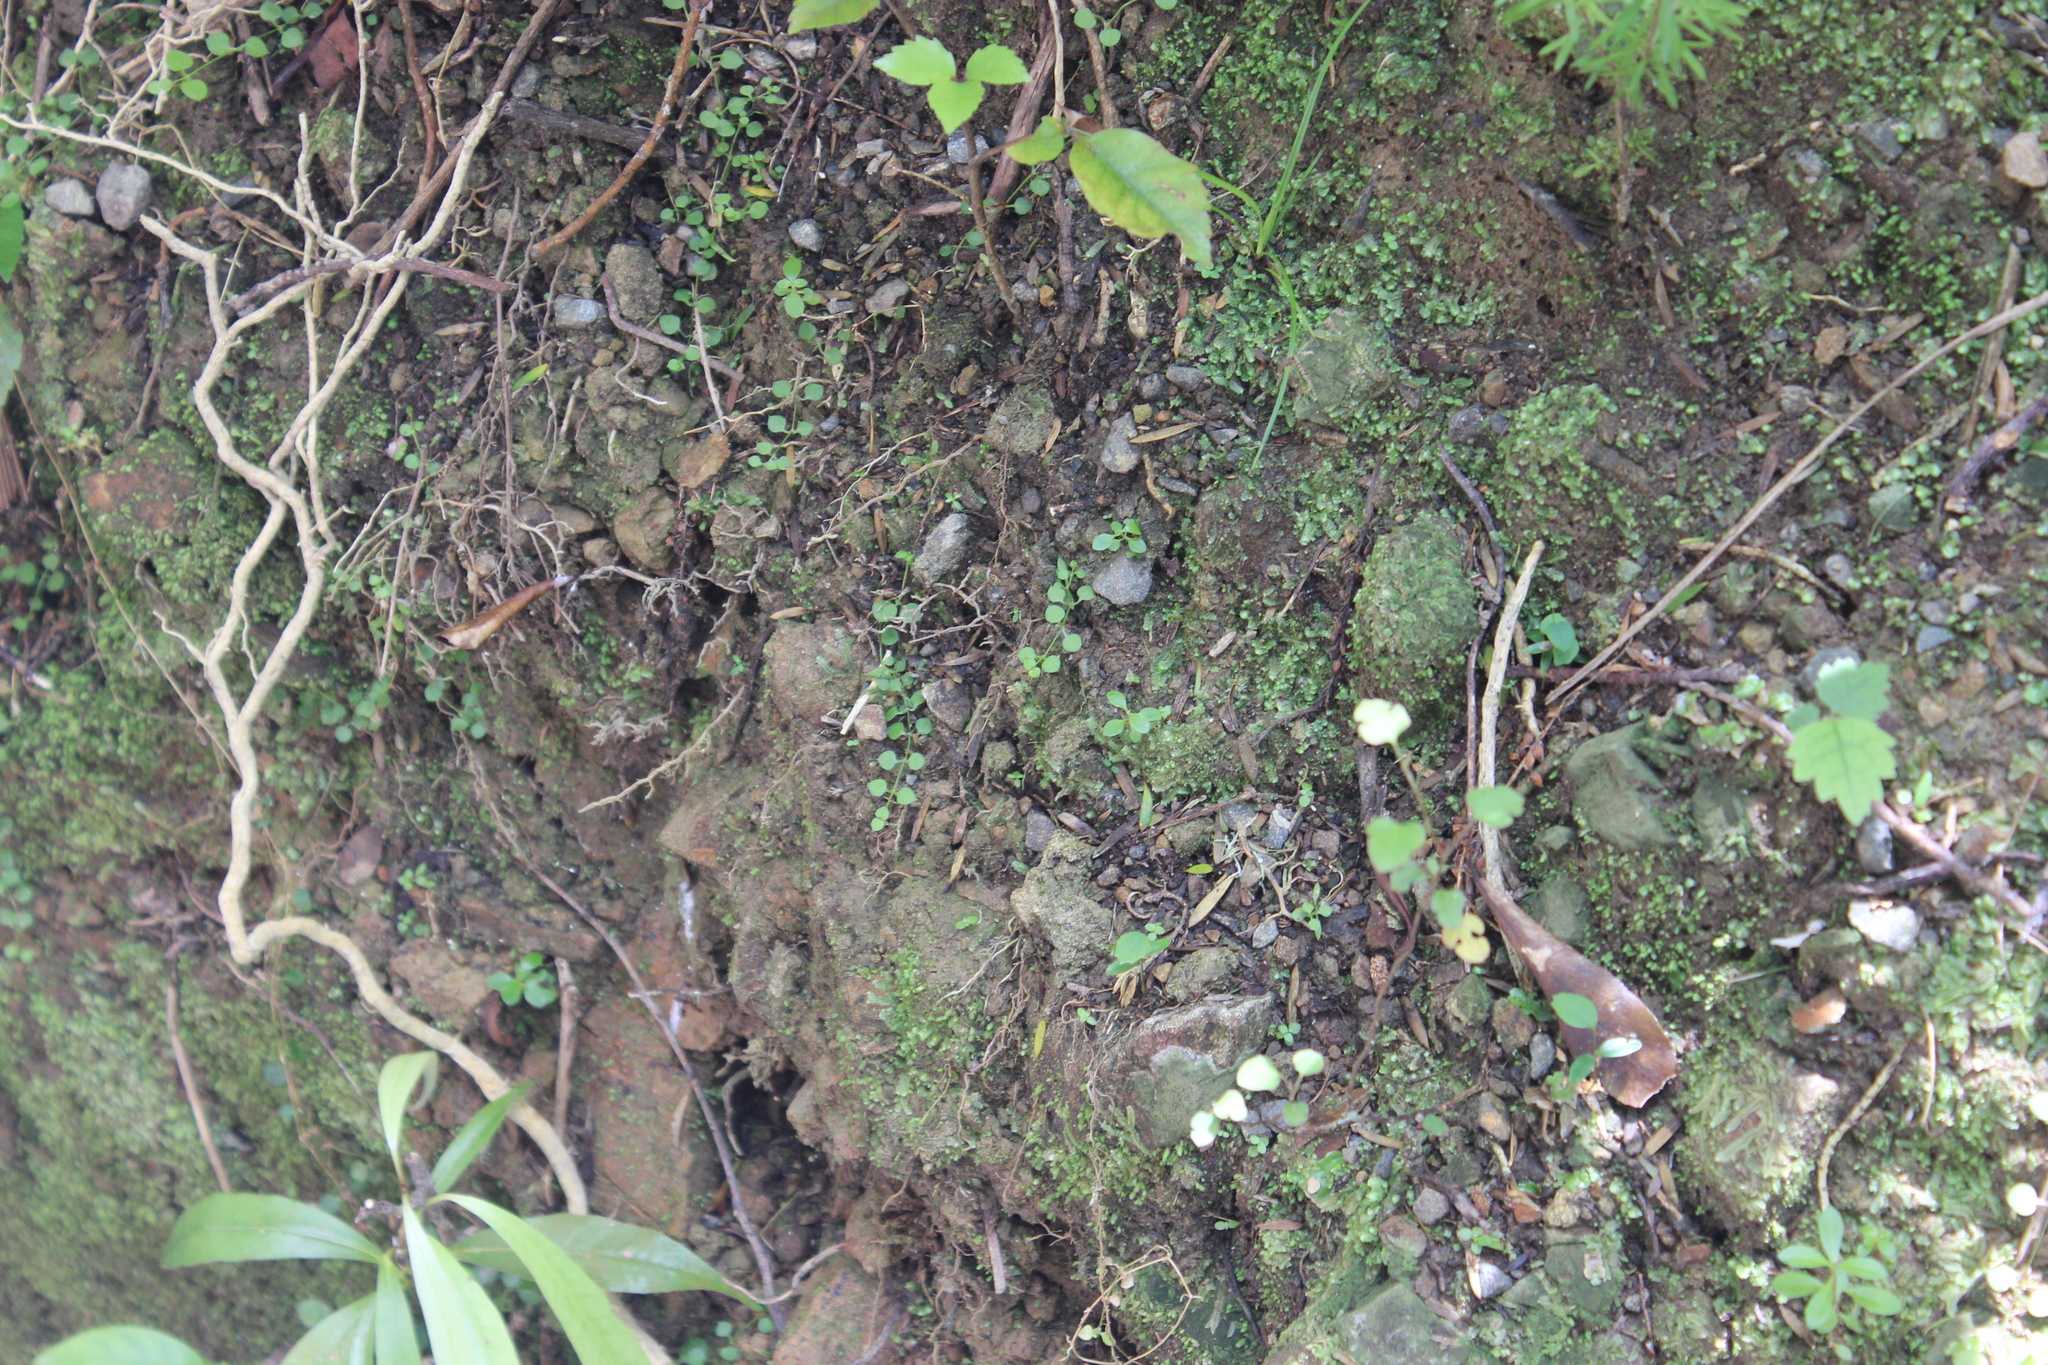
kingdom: Plantae
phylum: Tracheophyta
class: Magnoliopsida
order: Caryophyllales
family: Caryophyllaceae
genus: Stellaria
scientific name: Stellaria parviflora
